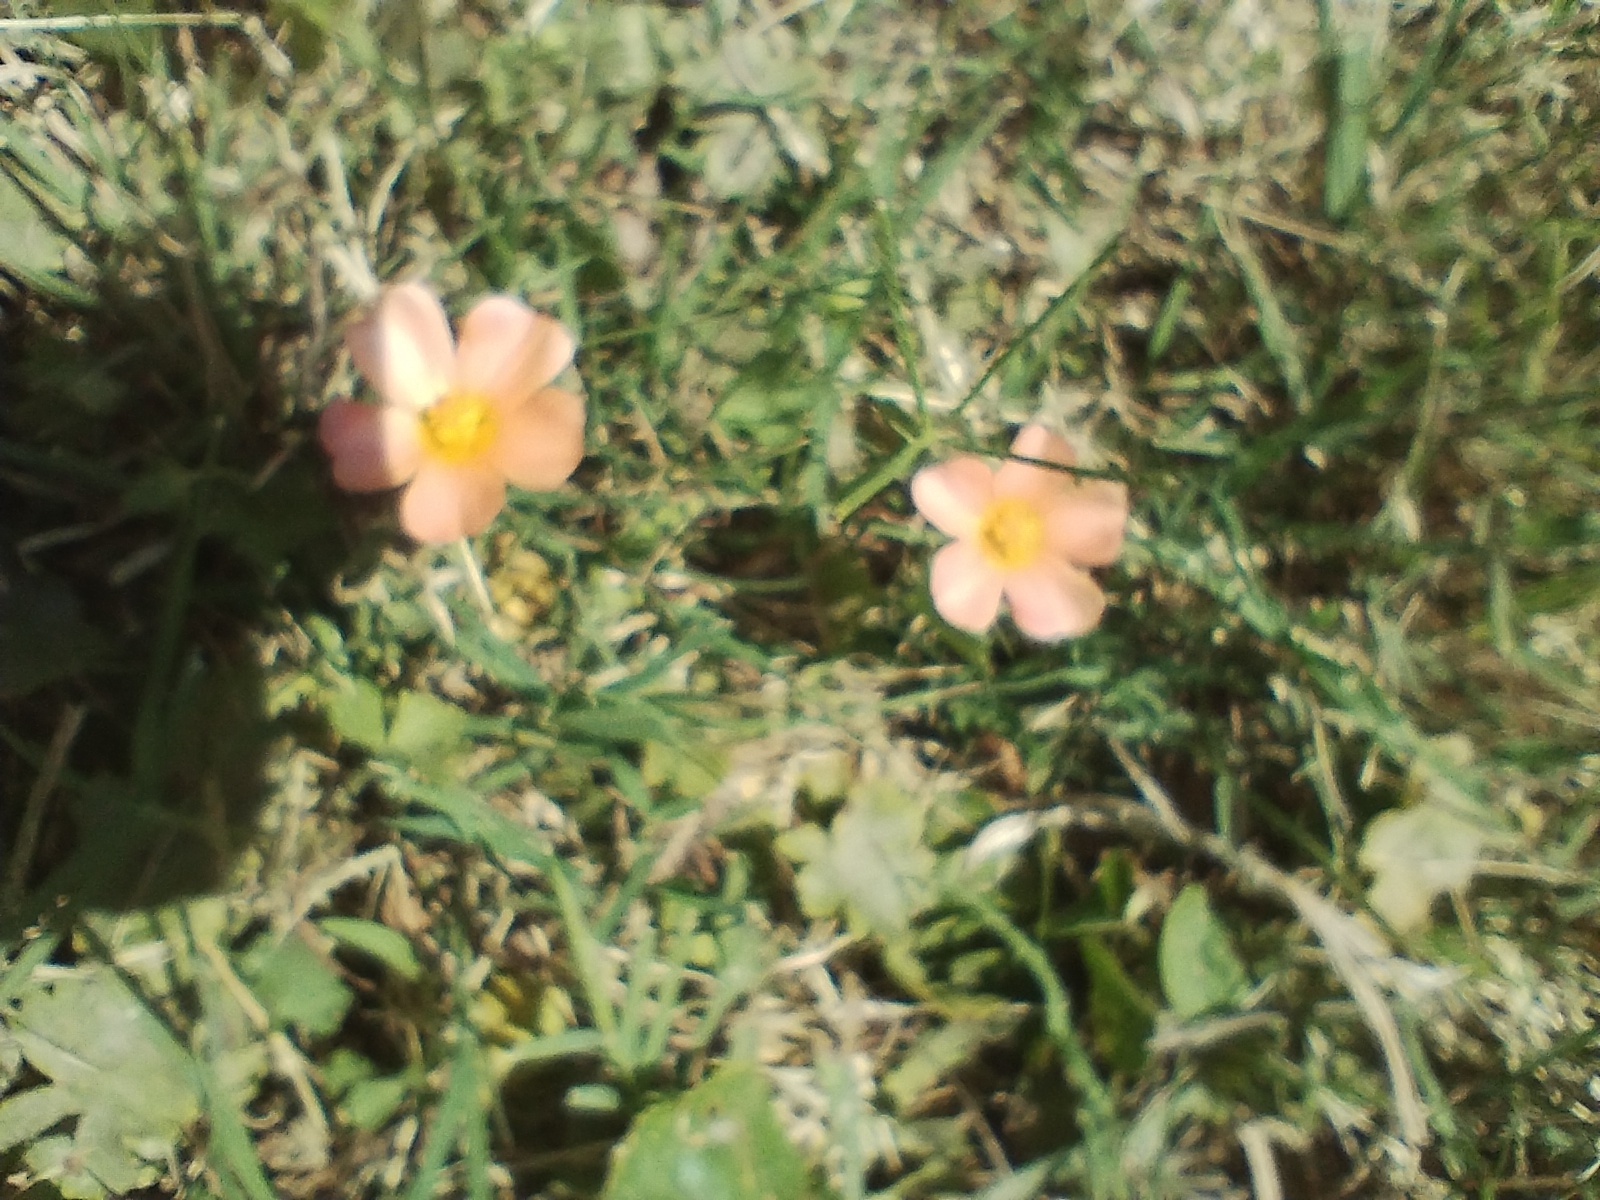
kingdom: Plantae
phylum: Tracheophyta
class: Magnoliopsida
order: Malvales
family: Malvaceae
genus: Modiolastrum
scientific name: Modiolastrum malvifolium
